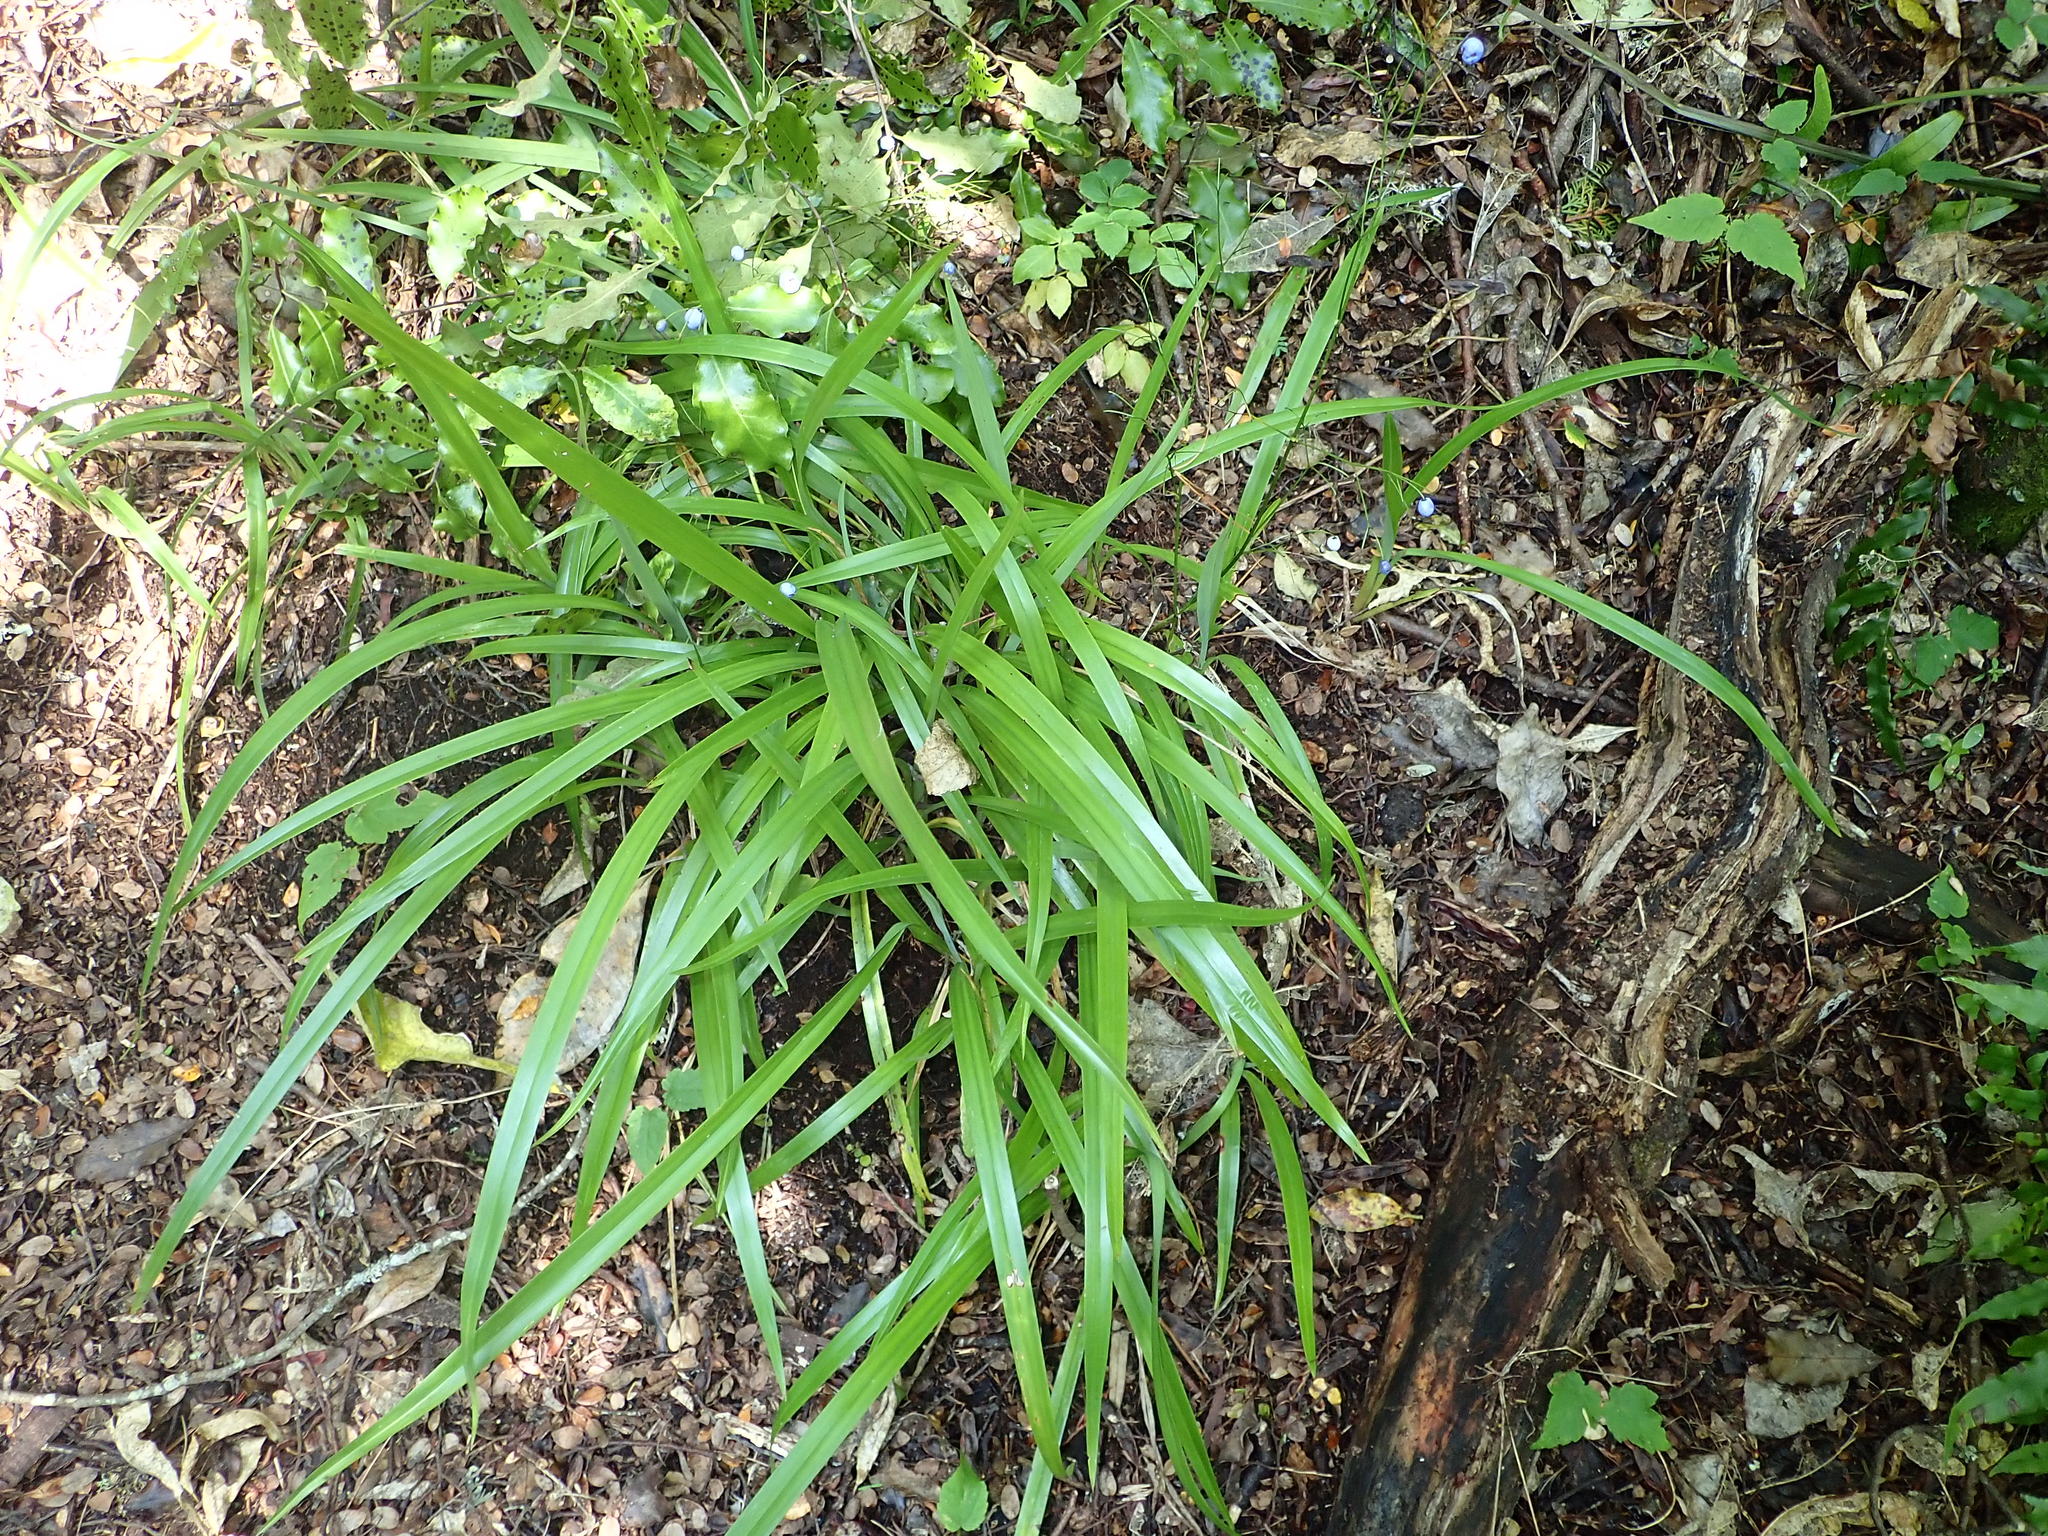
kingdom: Plantae
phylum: Tracheophyta
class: Liliopsida
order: Asparagales
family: Asphodelaceae
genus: Dianella
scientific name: Dianella nigra
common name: New zealand-blueberry
